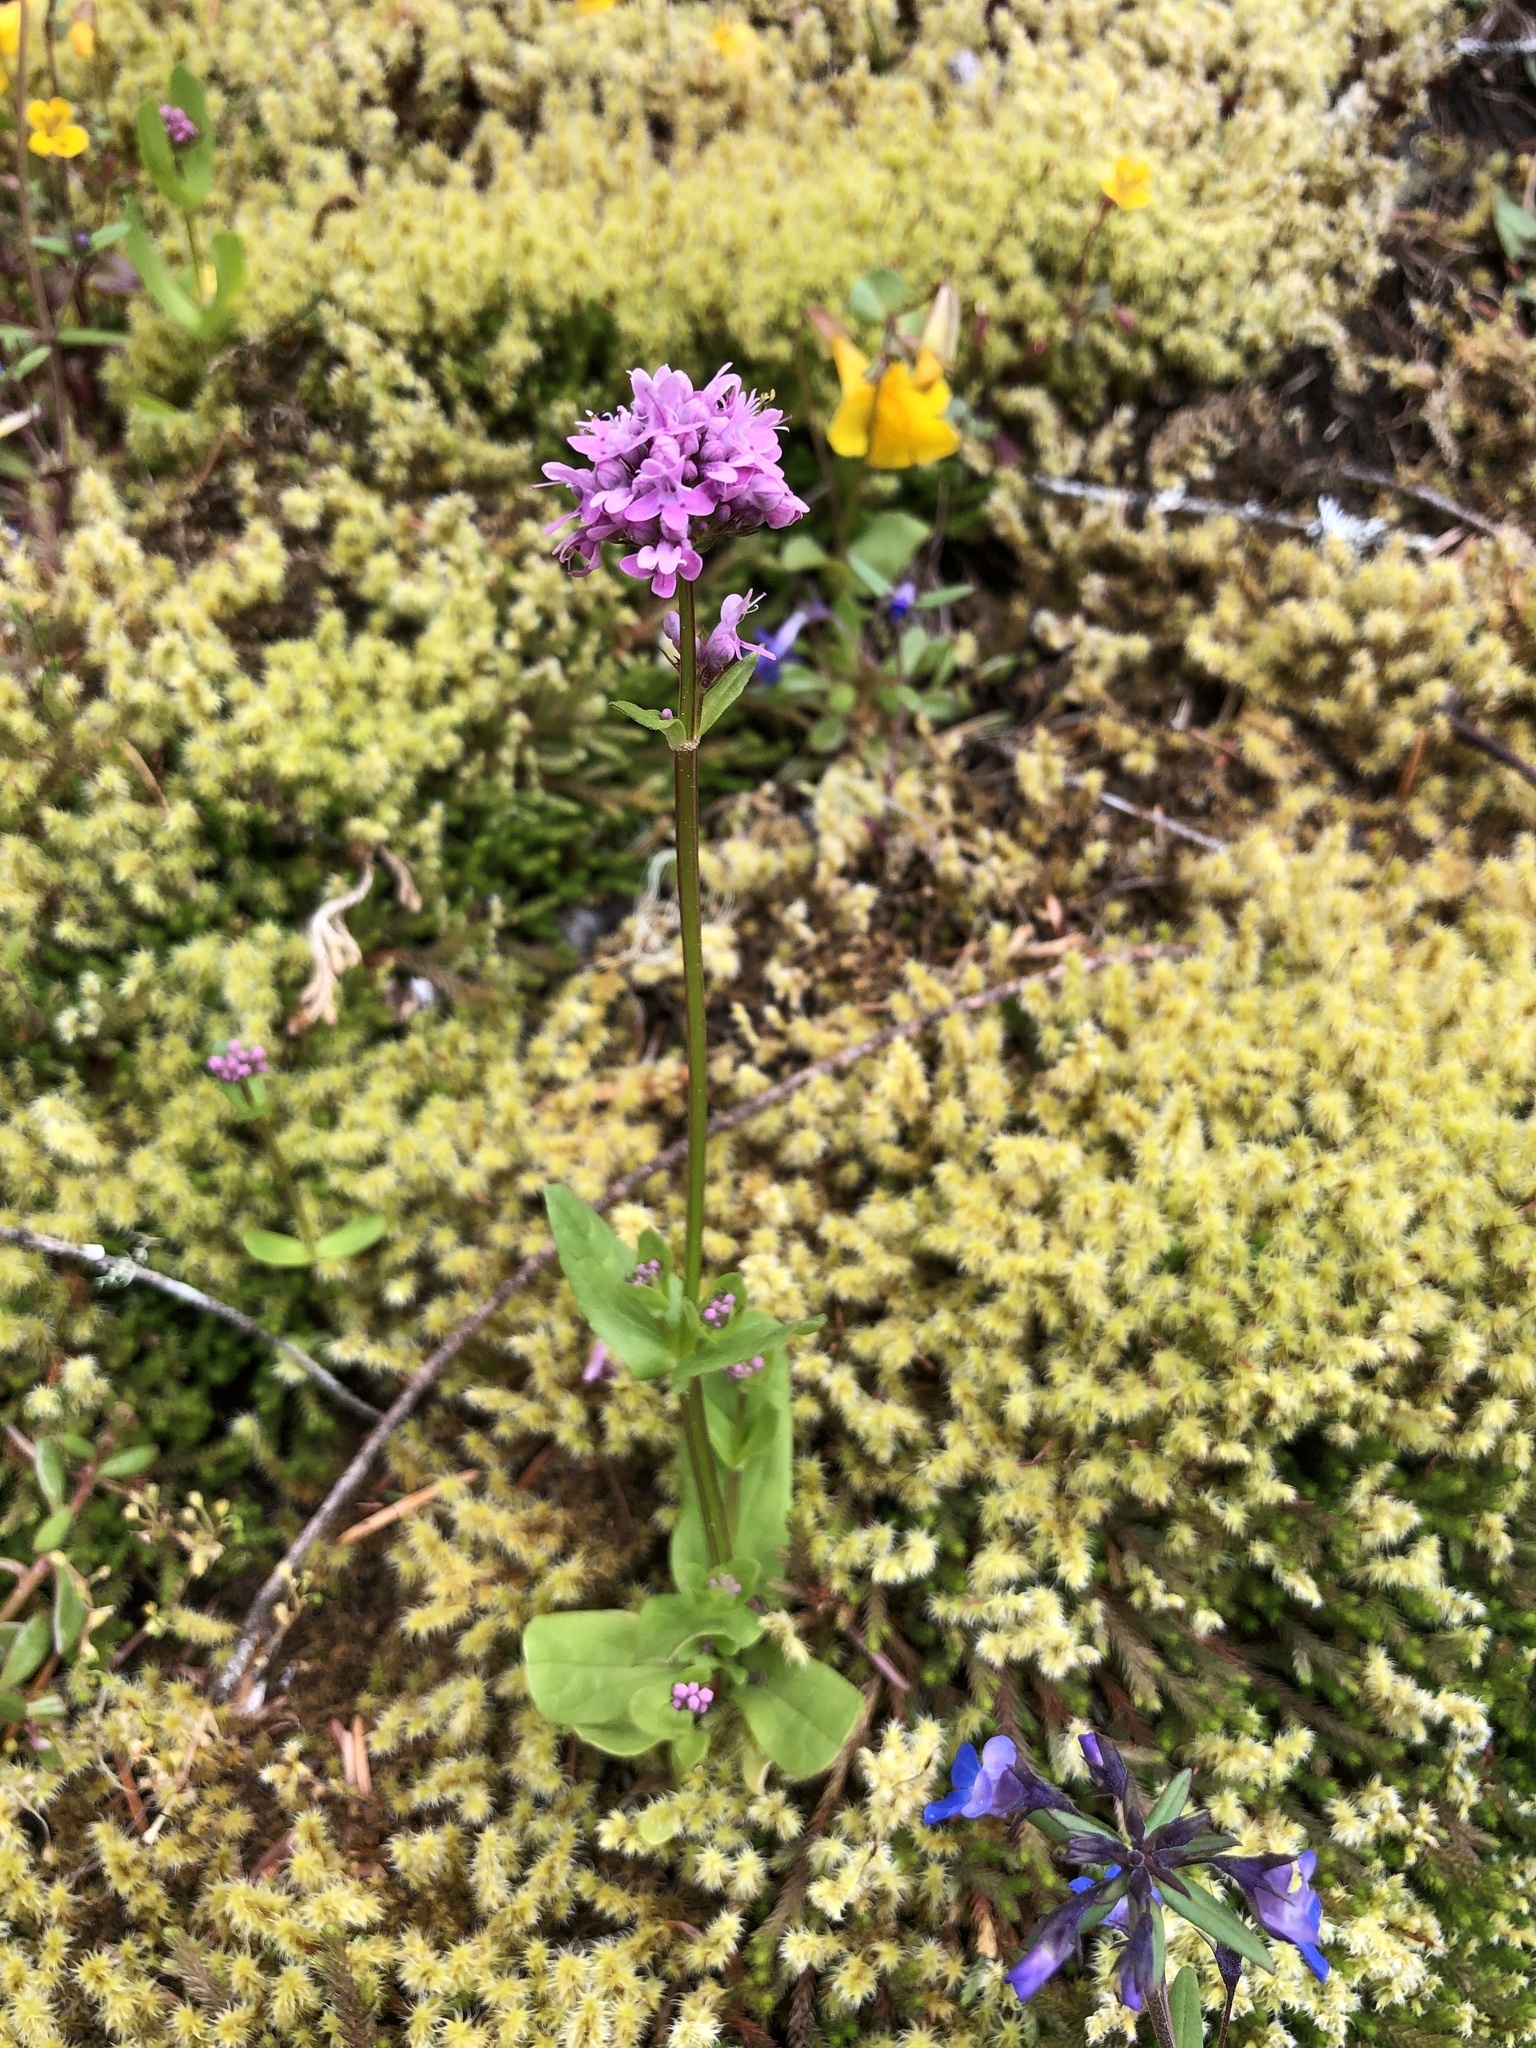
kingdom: Plantae
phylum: Tracheophyta
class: Magnoliopsida
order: Dipsacales
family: Caprifoliaceae
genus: Plectritis
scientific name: Plectritis congesta
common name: Pink plectritis
